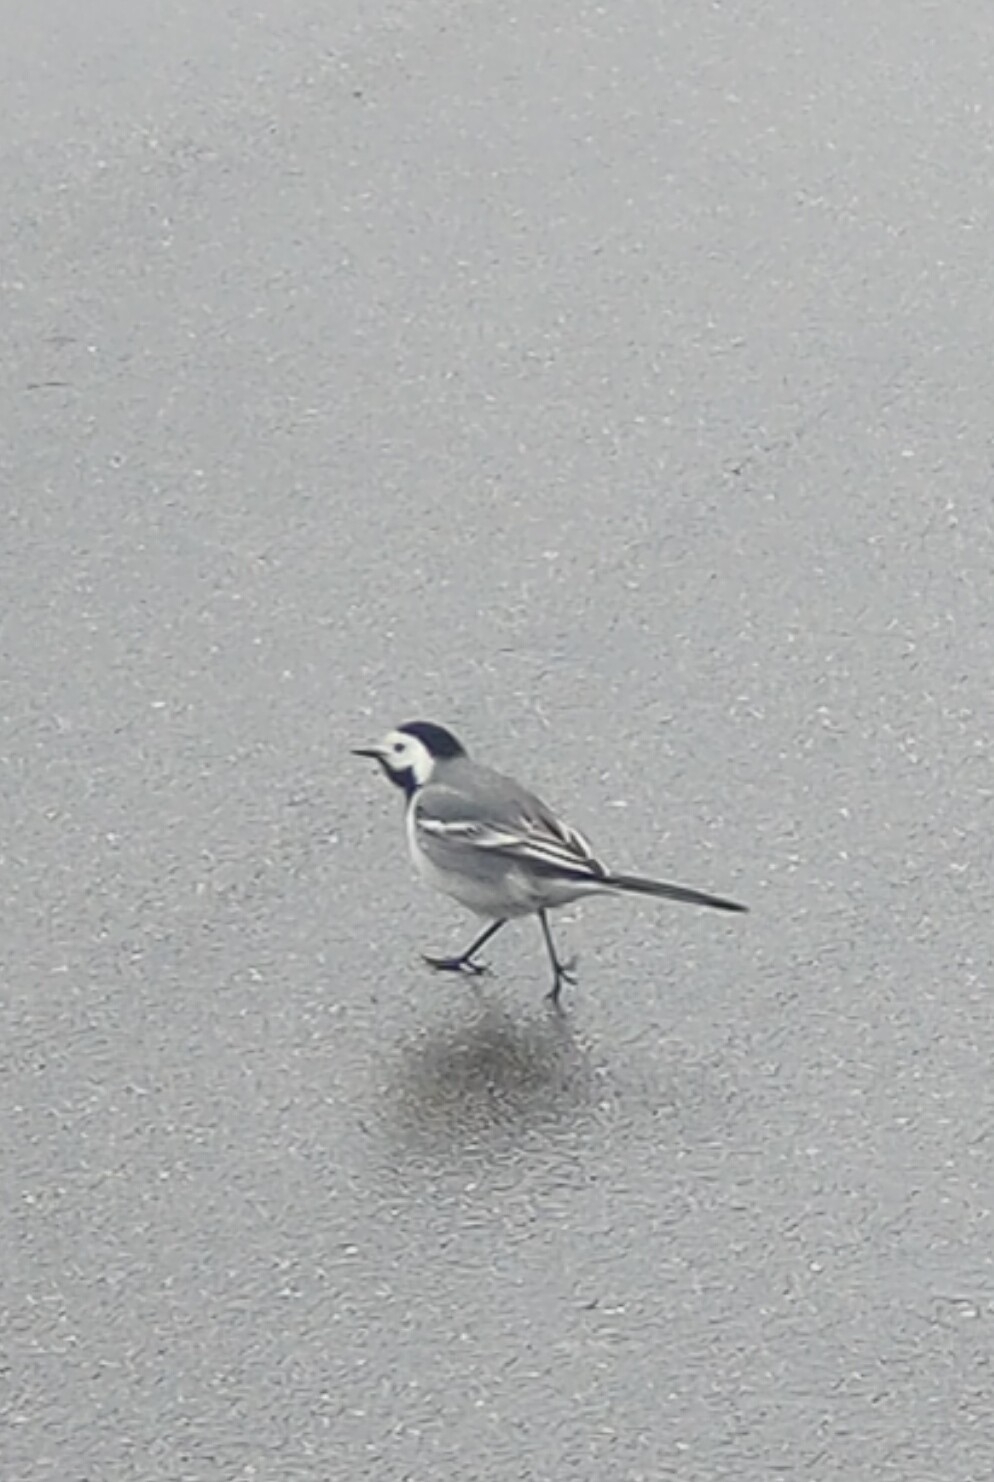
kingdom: Animalia
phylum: Chordata
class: Aves
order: Passeriformes
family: Motacillidae
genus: Motacilla
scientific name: Motacilla alba
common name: White wagtail
